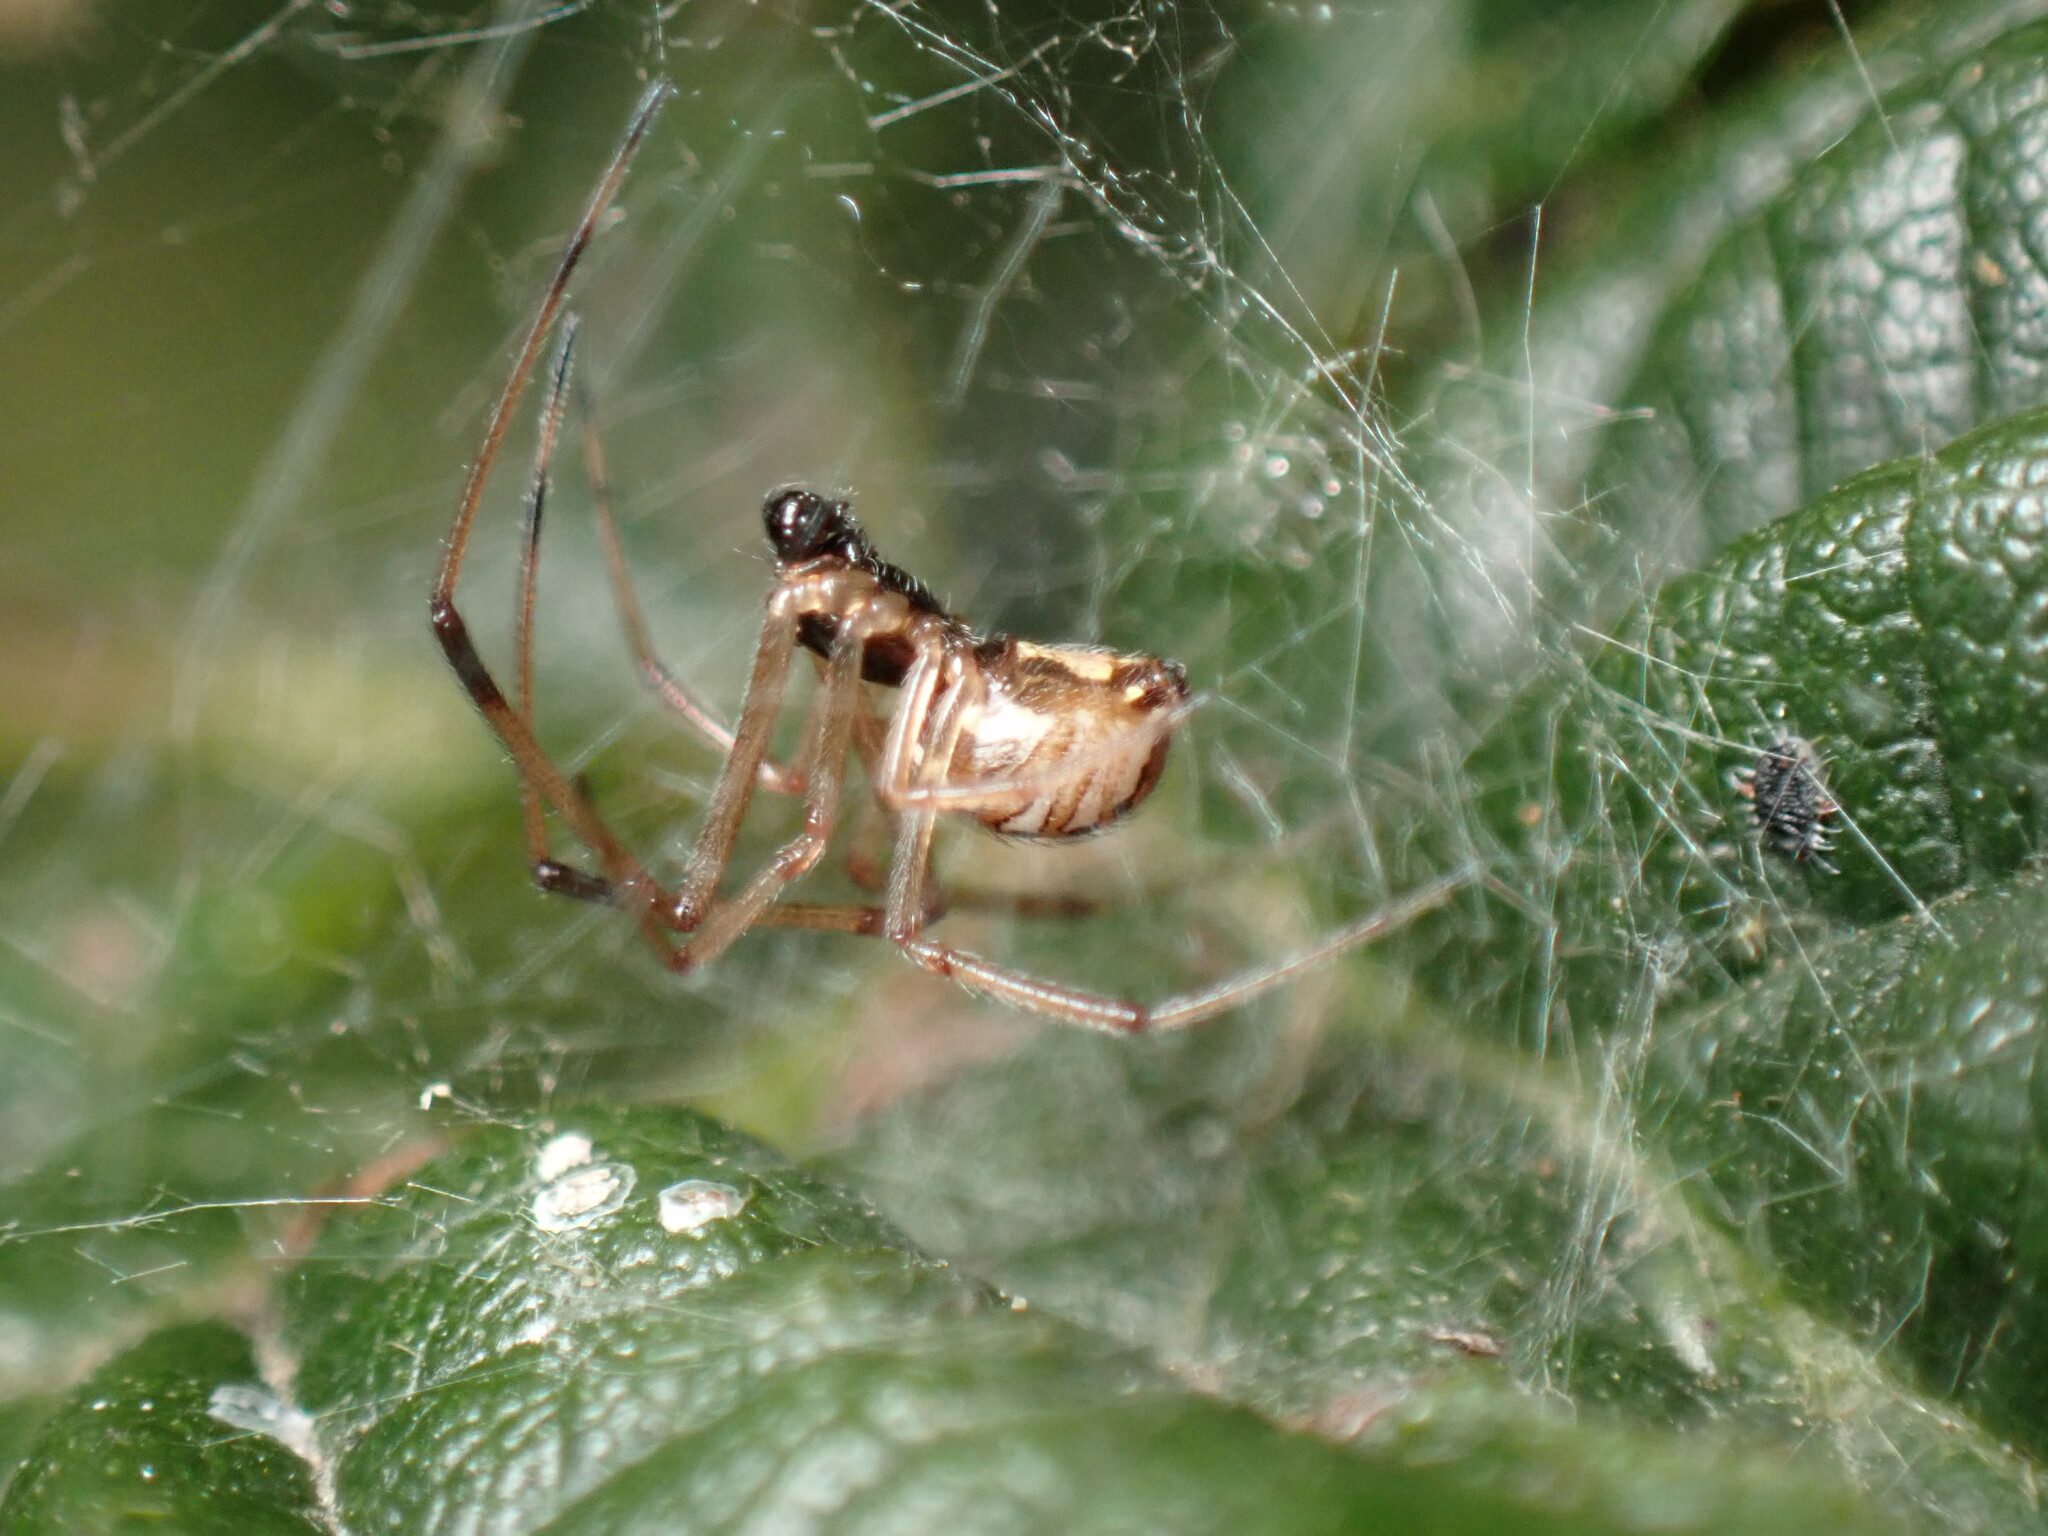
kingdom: Animalia
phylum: Arthropoda
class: Arachnida
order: Araneae
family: Theridiidae
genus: Latrodectus
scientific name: Latrodectus geometricus
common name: Brown widow spider
